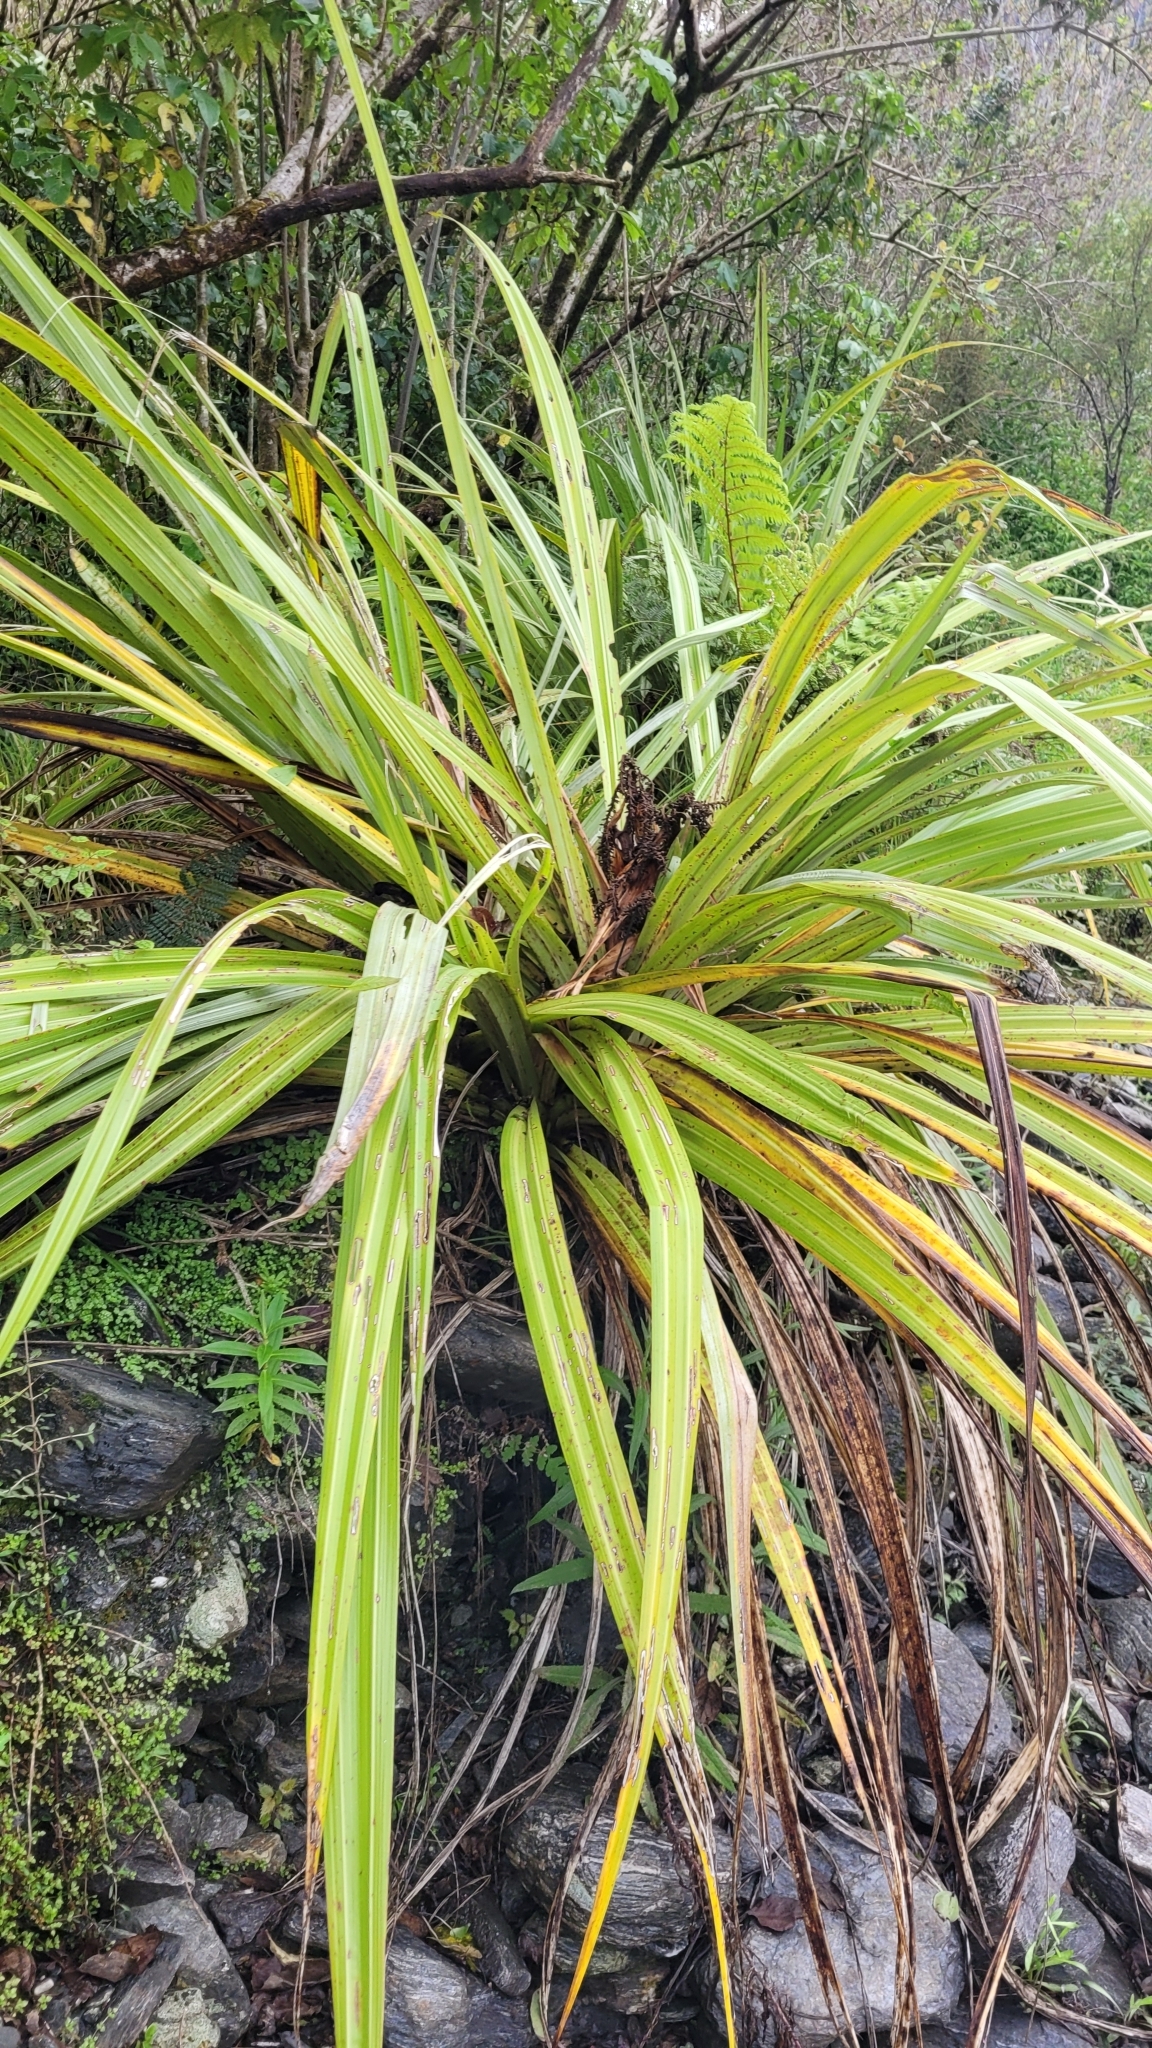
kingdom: Plantae
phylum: Tracheophyta
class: Liliopsida
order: Asparagales
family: Asteliaceae
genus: Astelia
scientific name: Astelia fragrans
